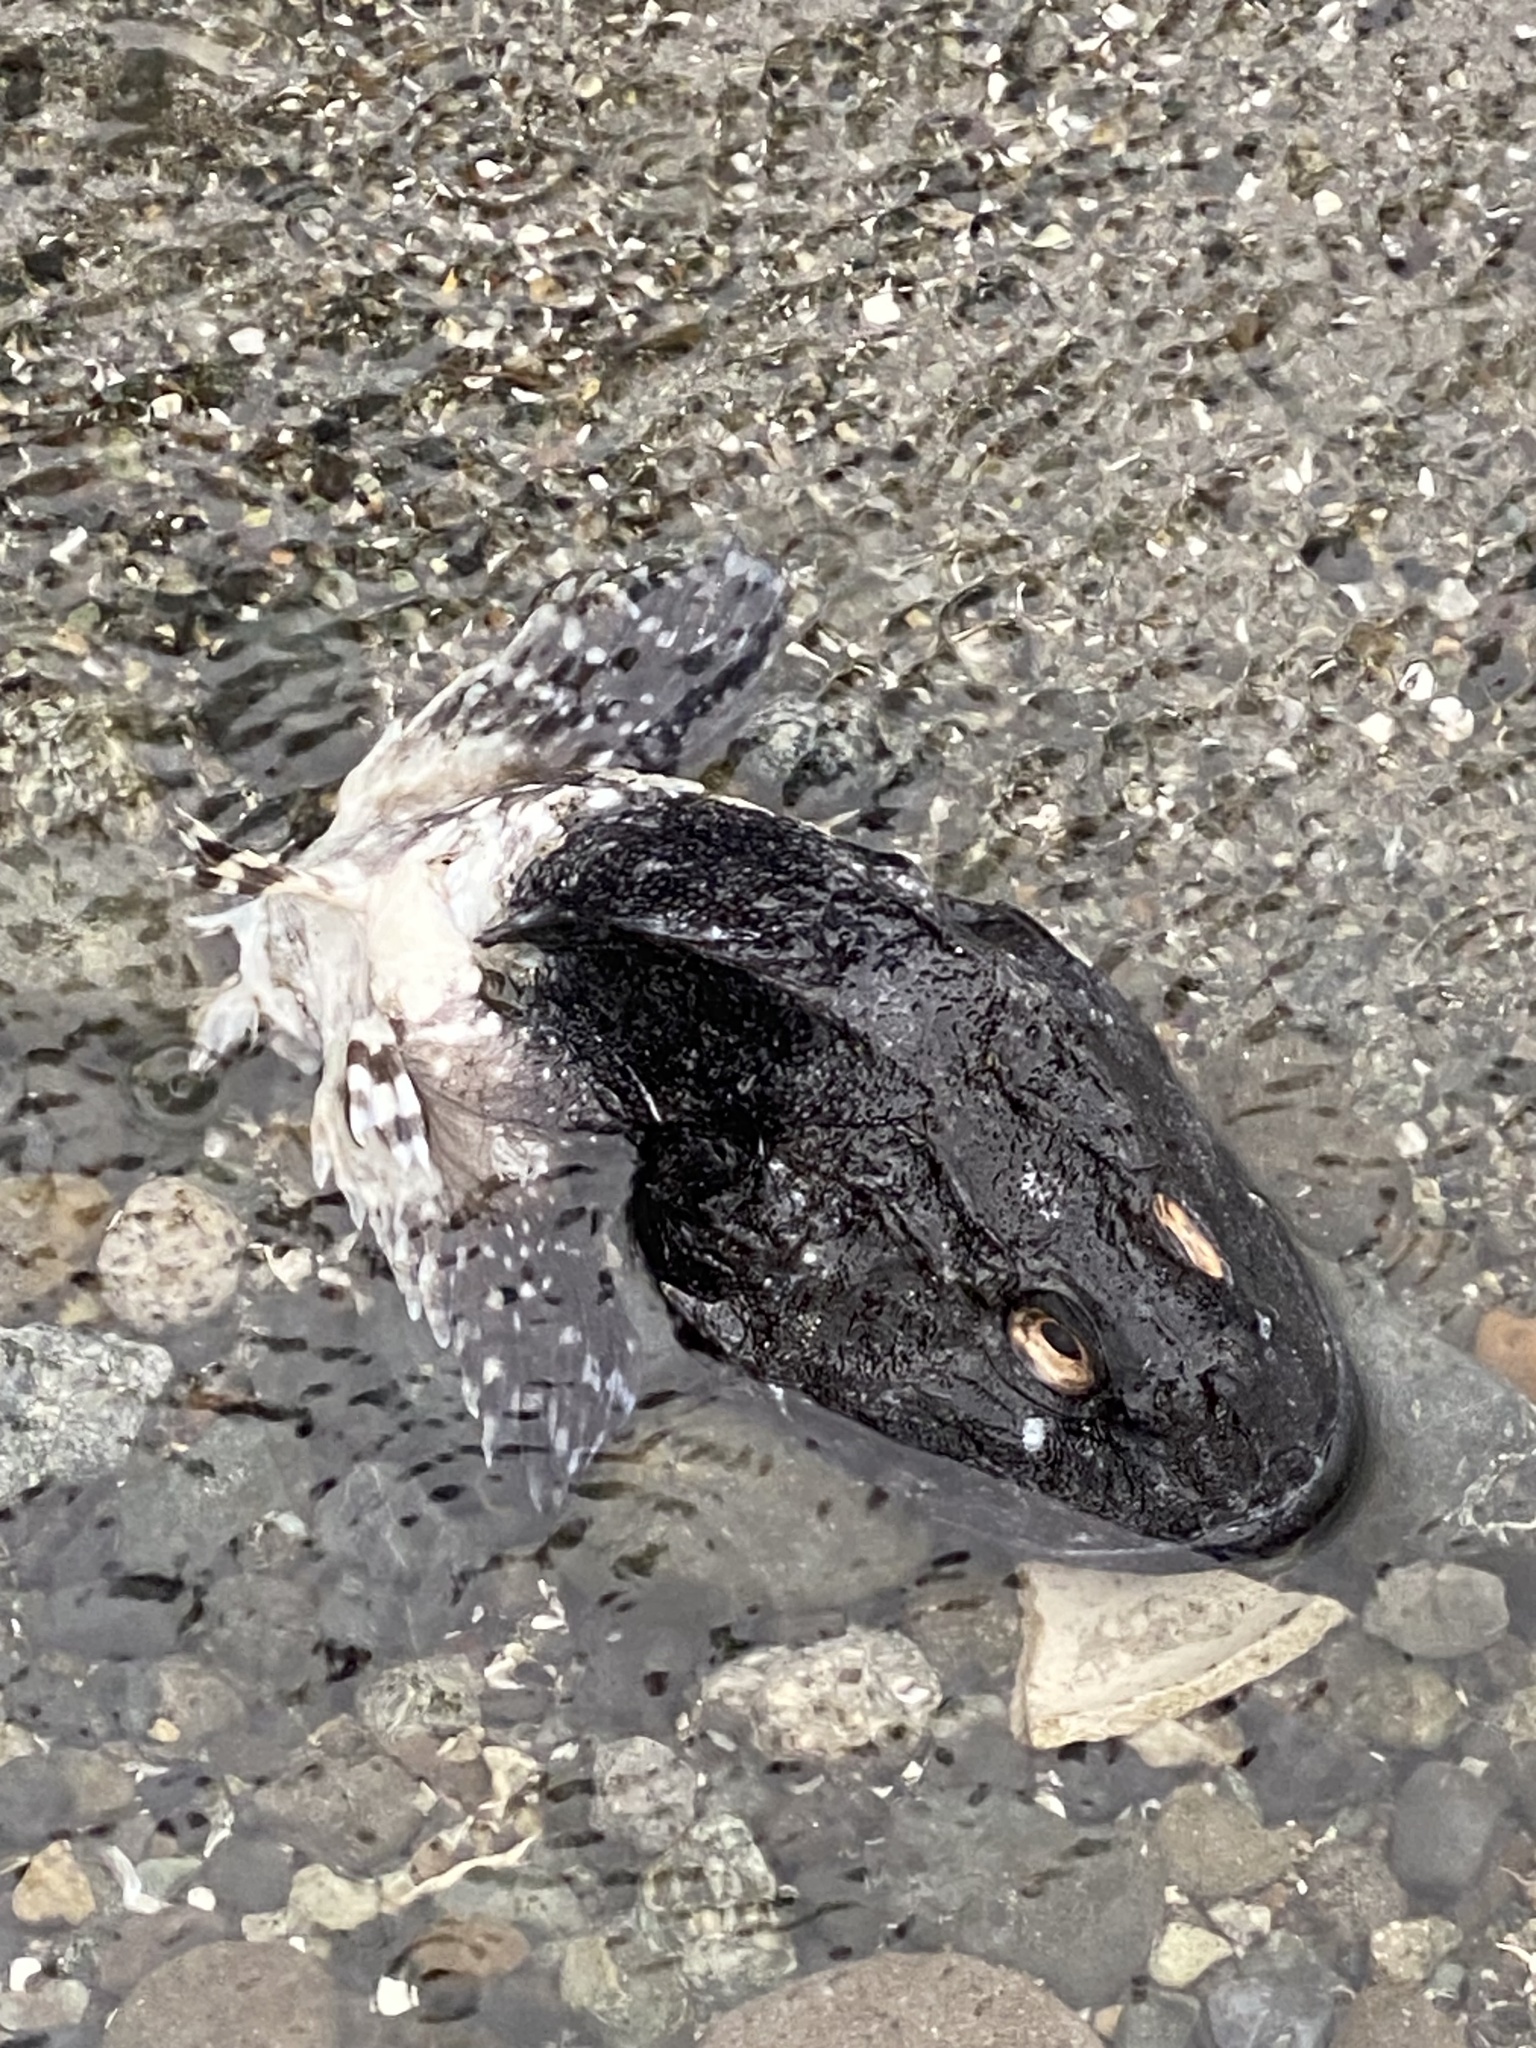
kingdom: Animalia
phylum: Chordata
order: Scorpaeniformes
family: Cottidae
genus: Myoxocephalus
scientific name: Myoxocephalus polyacanthocephalus
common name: Great sculpin
